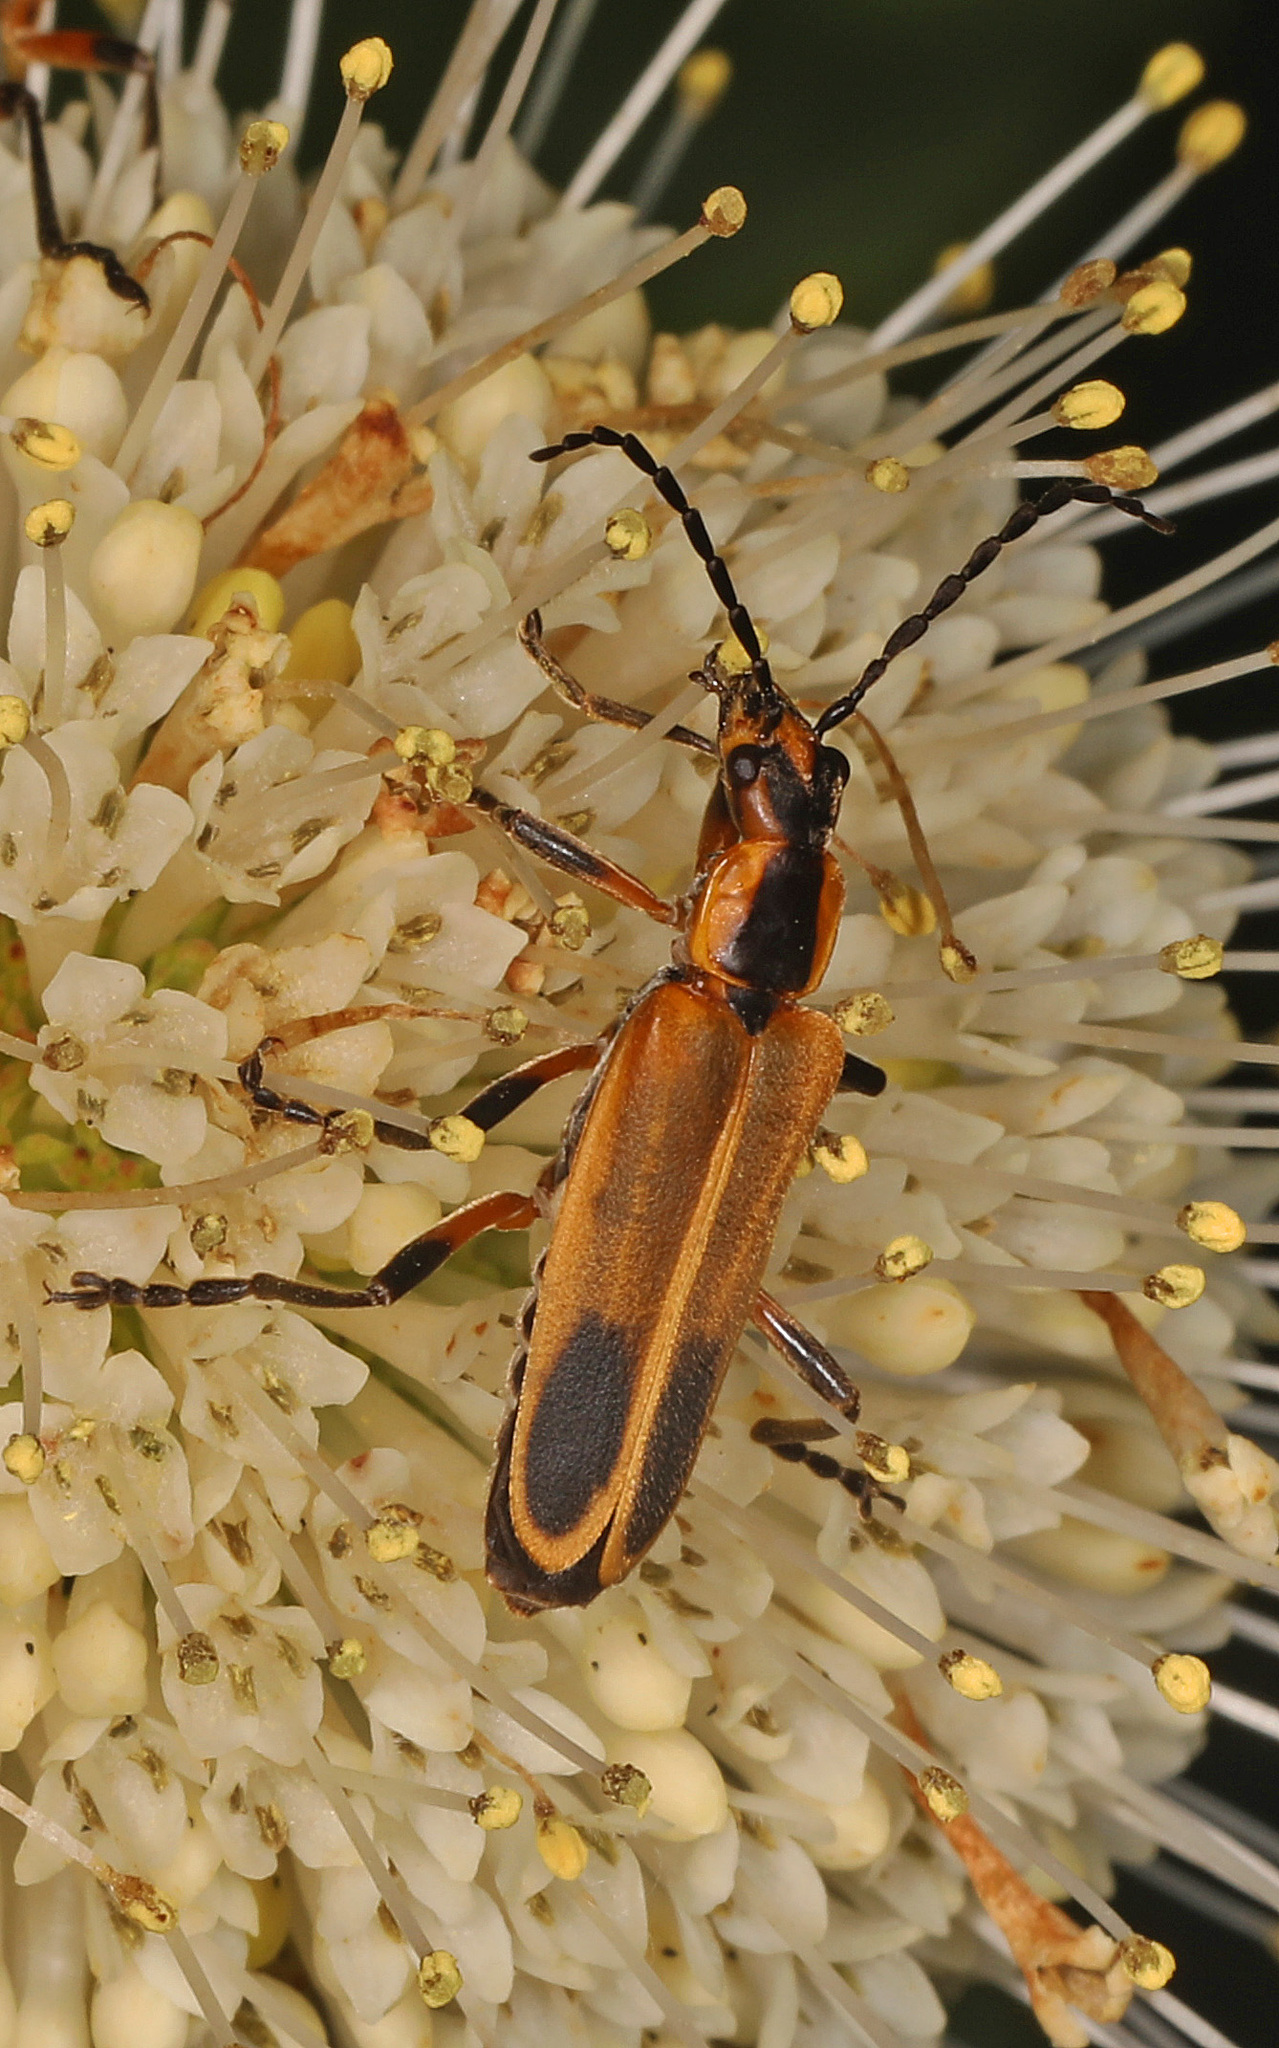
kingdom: Animalia
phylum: Arthropoda
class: Insecta
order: Coleoptera
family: Cantharidae
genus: Chauliognathus
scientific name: Chauliognathus marginatus
